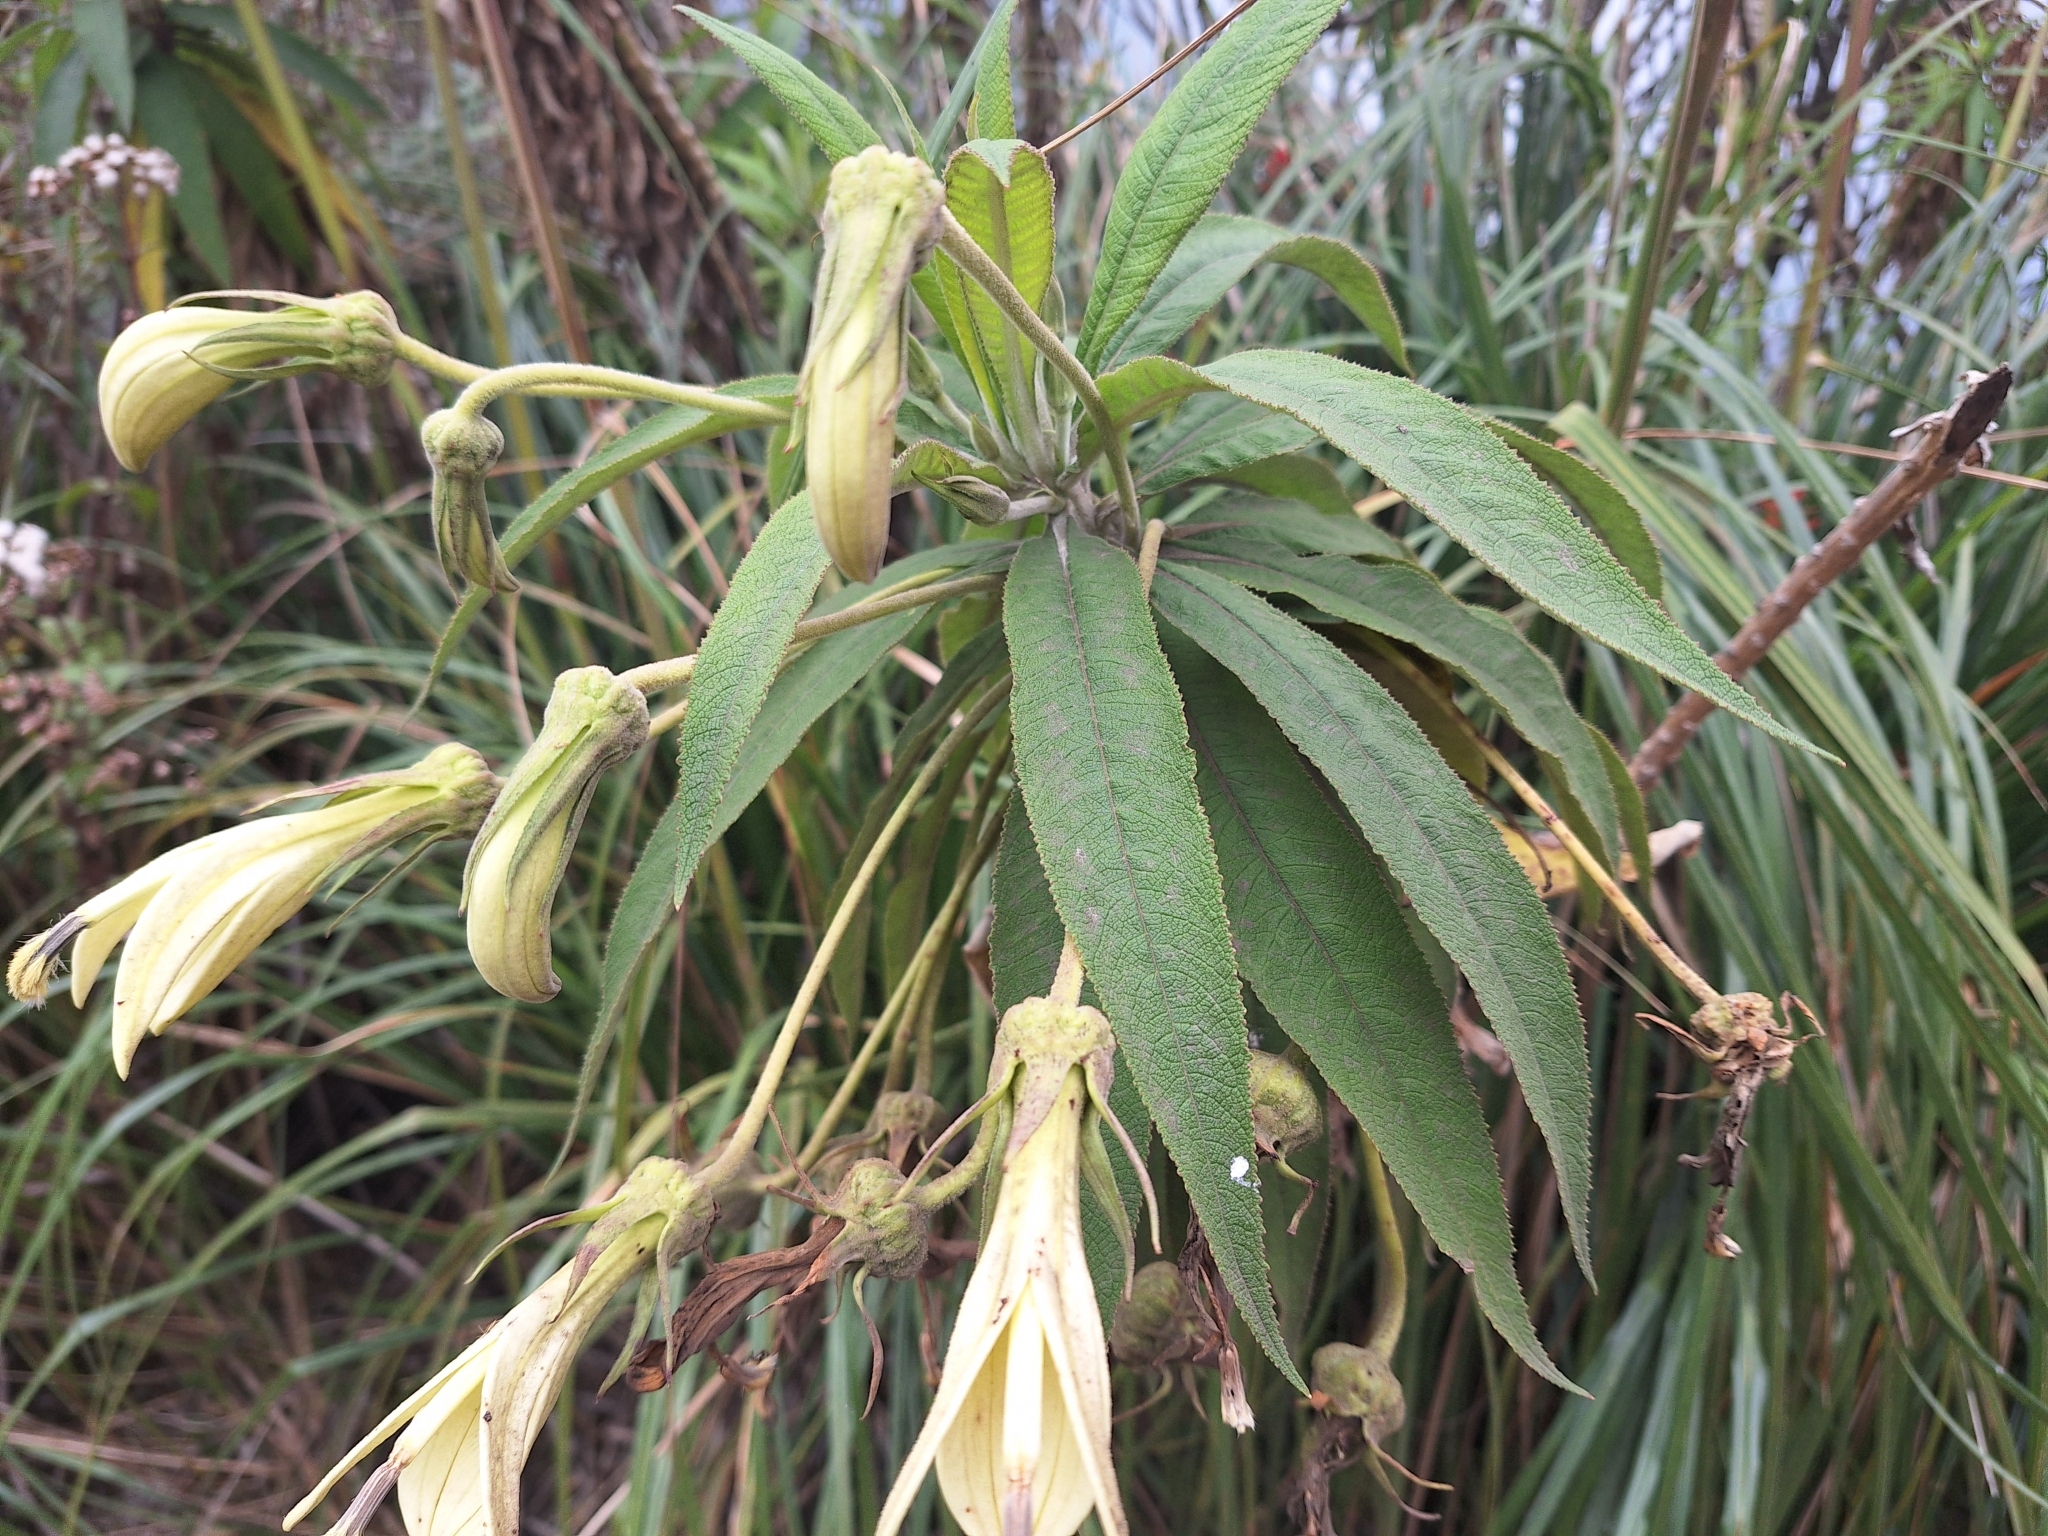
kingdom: Plantae
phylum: Tracheophyta
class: Magnoliopsida
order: Asterales
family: Campanulaceae
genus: Siphocampylus
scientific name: Siphocampylus giganteus
